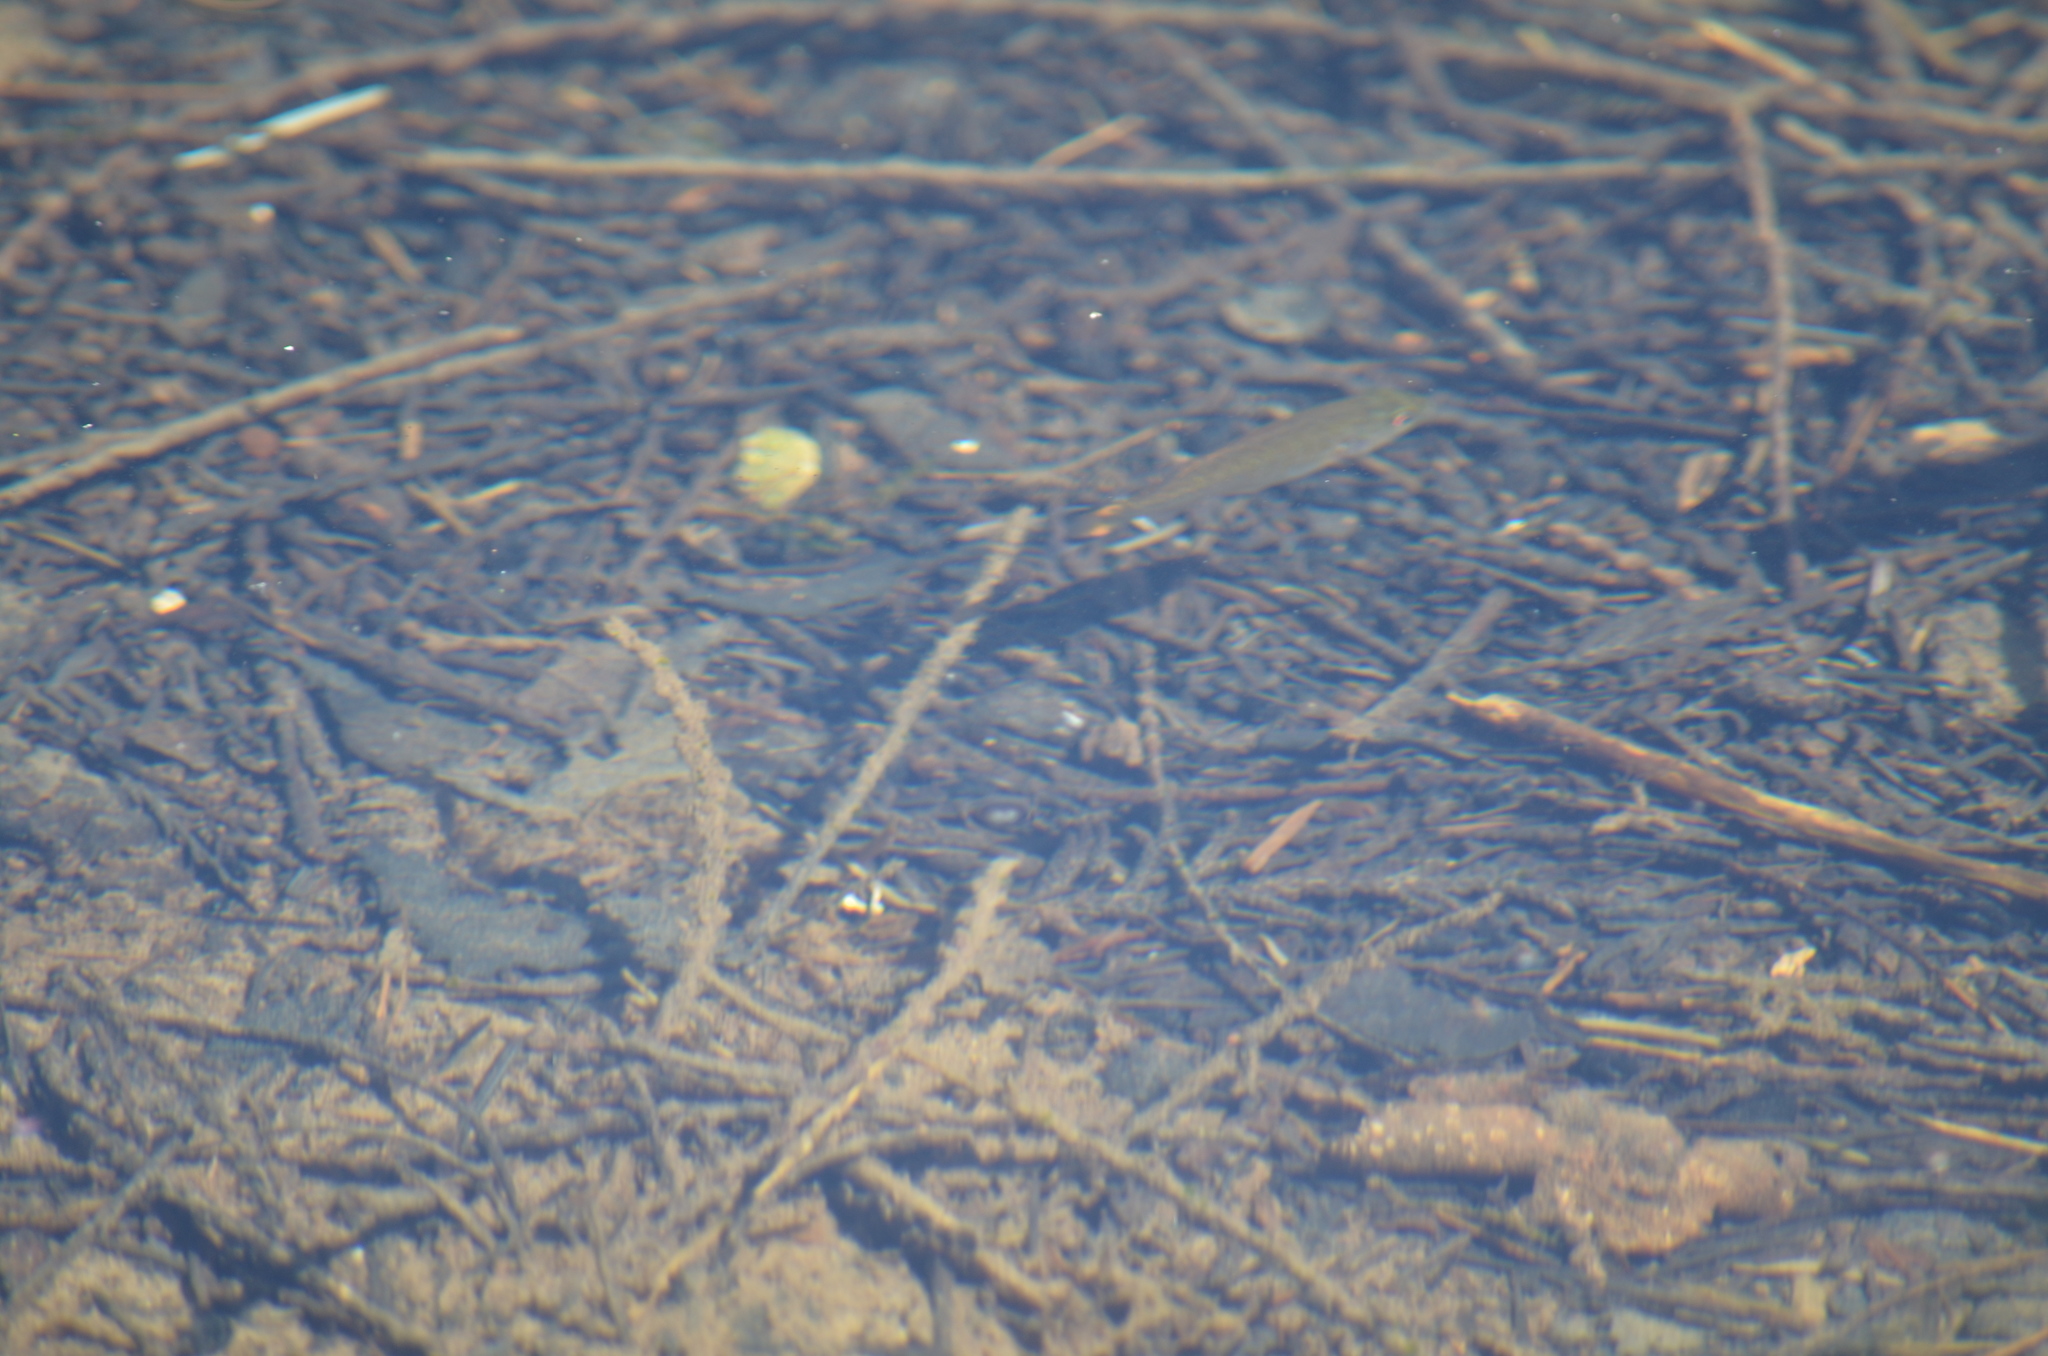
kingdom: Animalia
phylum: Chordata
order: Perciformes
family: Centrarchidae
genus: Micropterus
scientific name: Micropterus dolomieu
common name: Smallmouth bass
